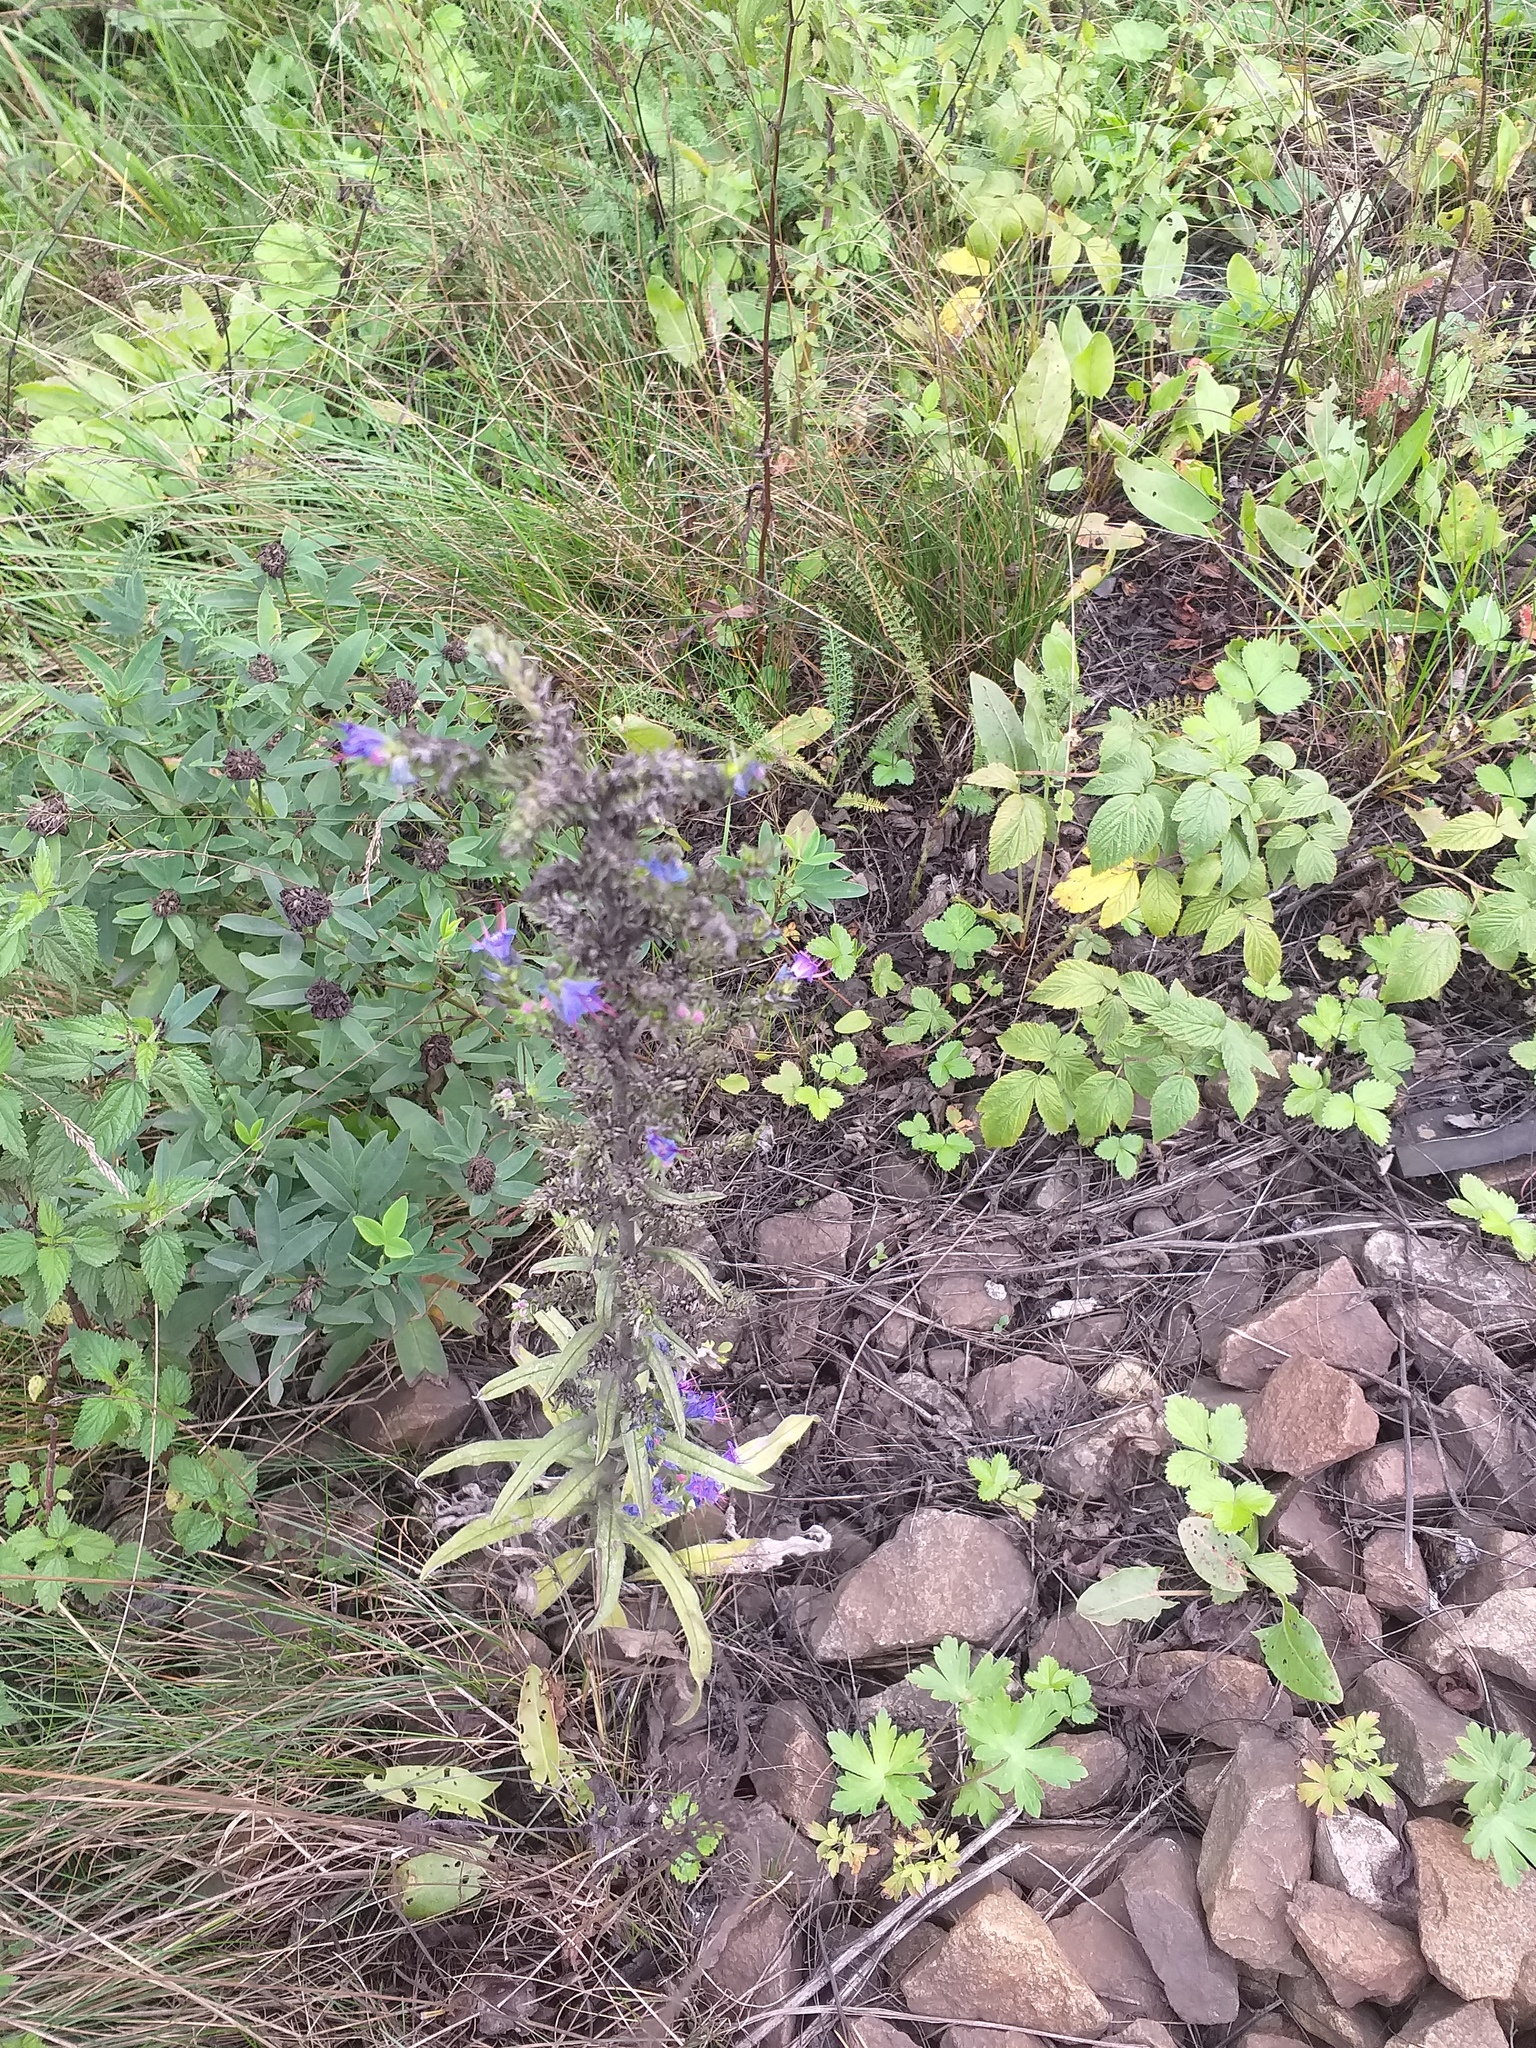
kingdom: Plantae
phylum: Tracheophyta
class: Magnoliopsida
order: Boraginales
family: Boraginaceae
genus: Echium
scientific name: Echium vulgare
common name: Common viper's bugloss
